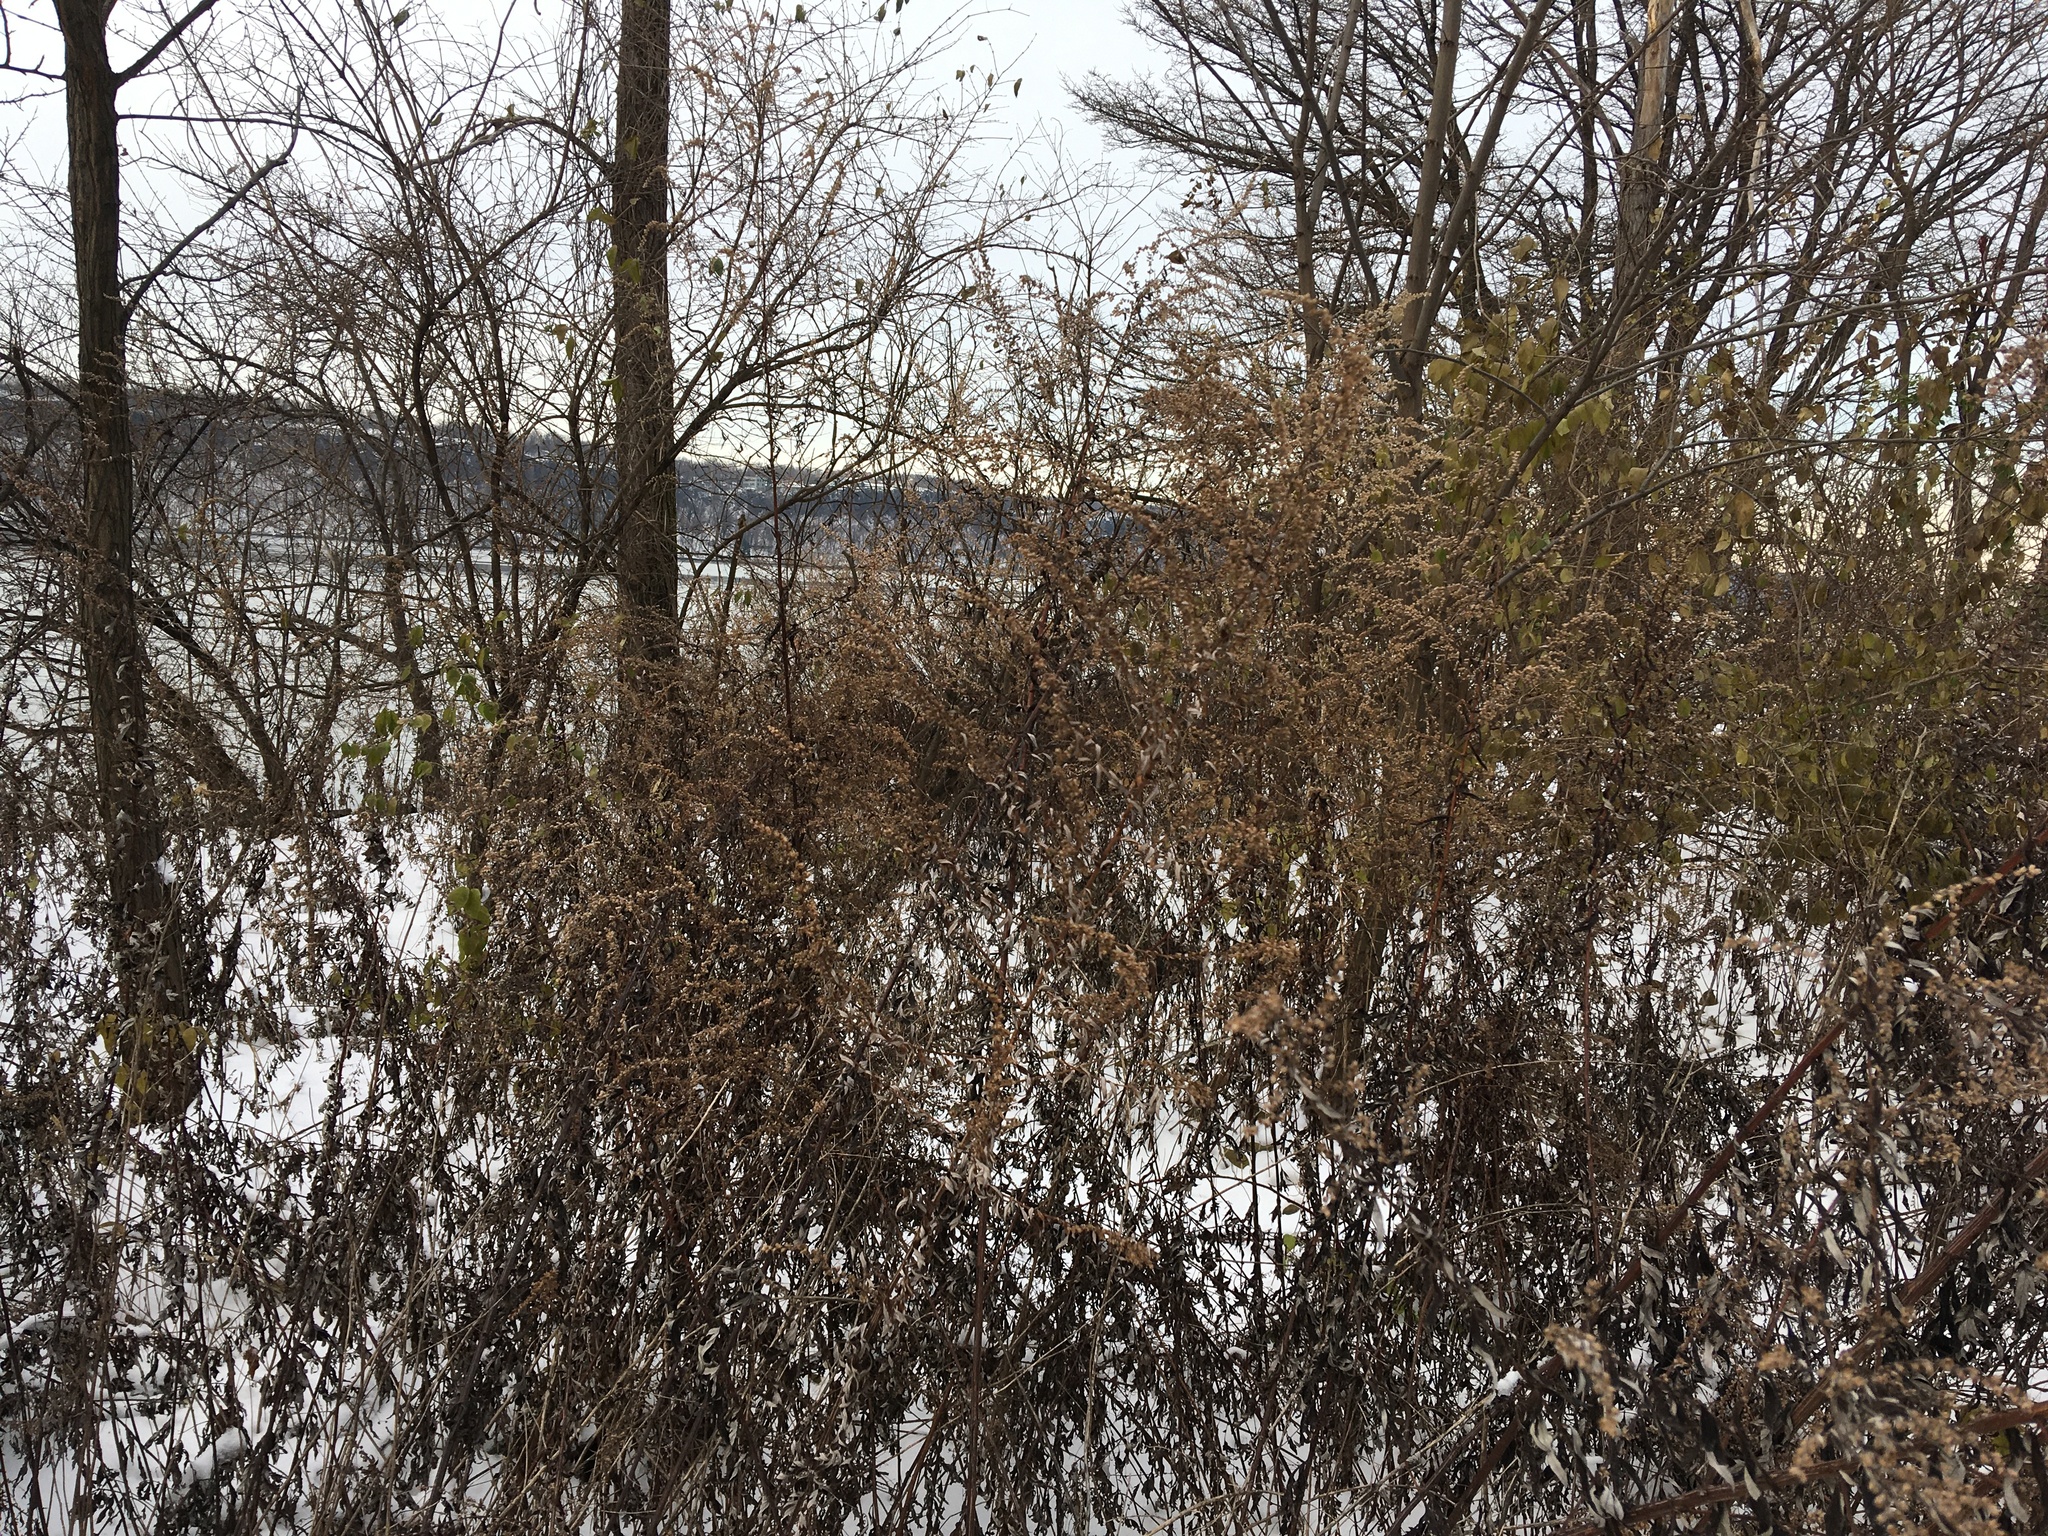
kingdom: Plantae
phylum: Tracheophyta
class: Magnoliopsida
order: Asterales
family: Asteraceae
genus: Artemisia
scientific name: Artemisia vulgaris
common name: Mugwort
